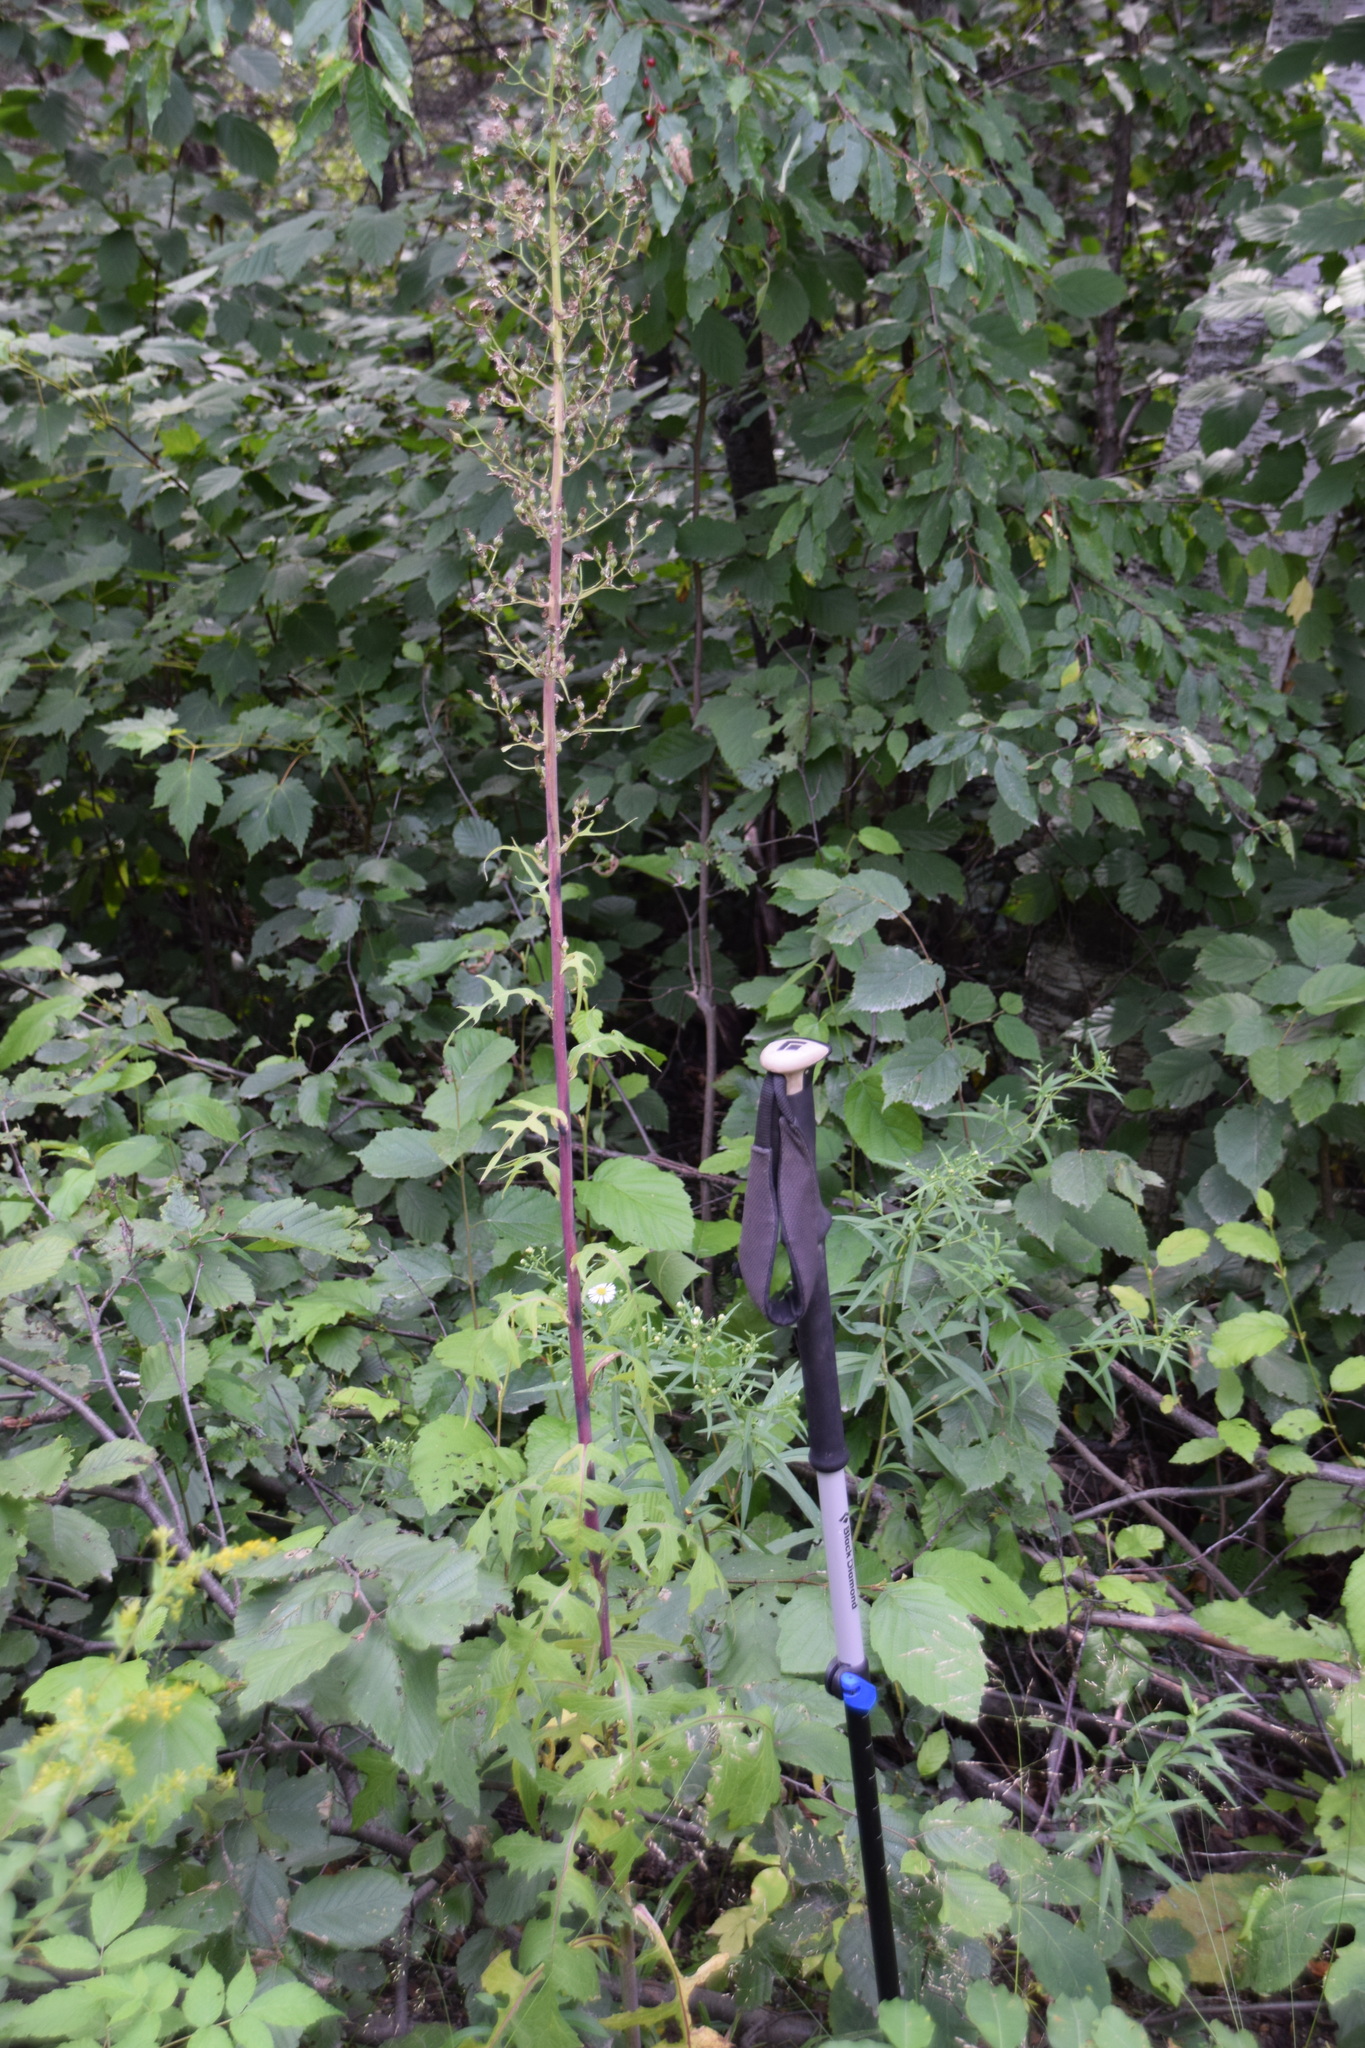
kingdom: Plantae
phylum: Tracheophyta
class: Magnoliopsida
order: Asterales
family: Asteraceae
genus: Lactuca
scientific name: Lactuca biennis
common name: Blue wood lettuce
